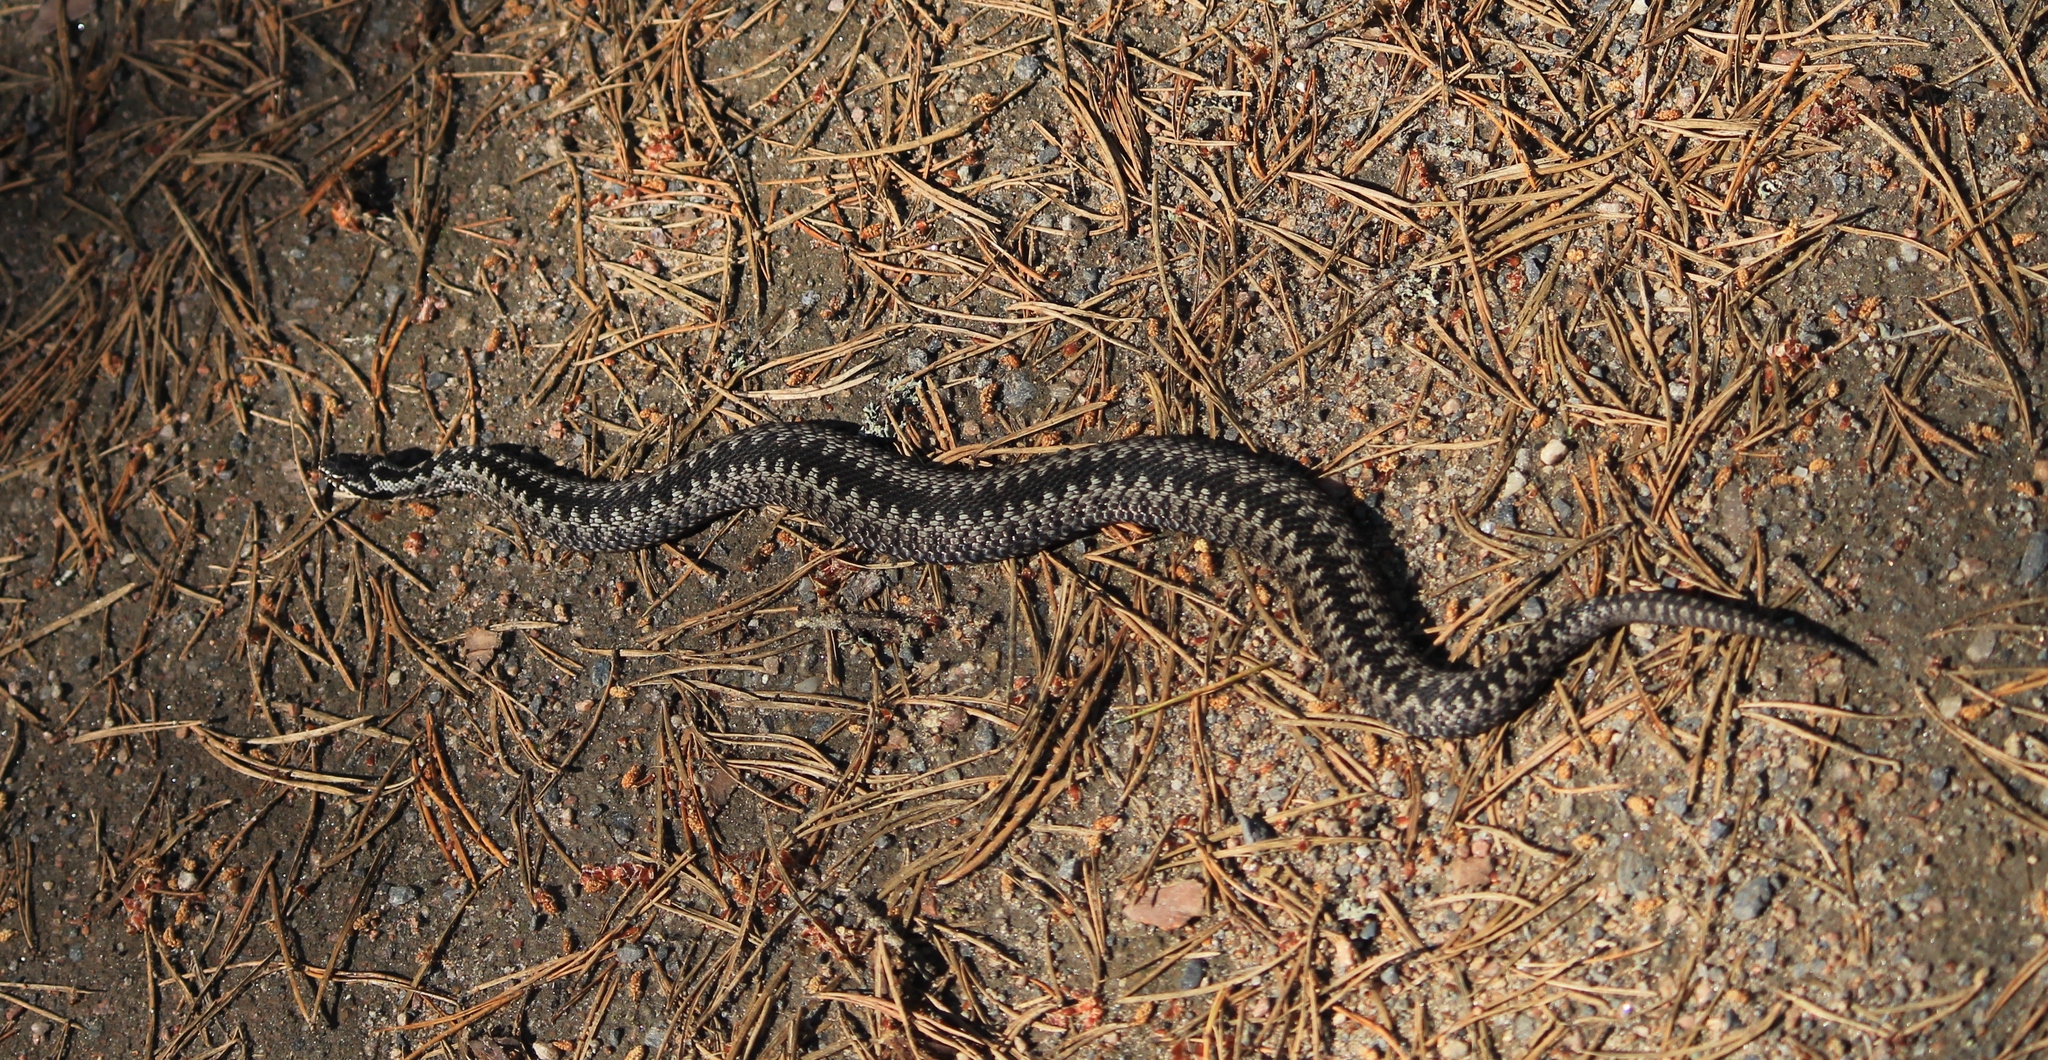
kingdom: Animalia
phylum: Chordata
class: Squamata
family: Viperidae
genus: Vipera
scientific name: Vipera berus
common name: Adder
